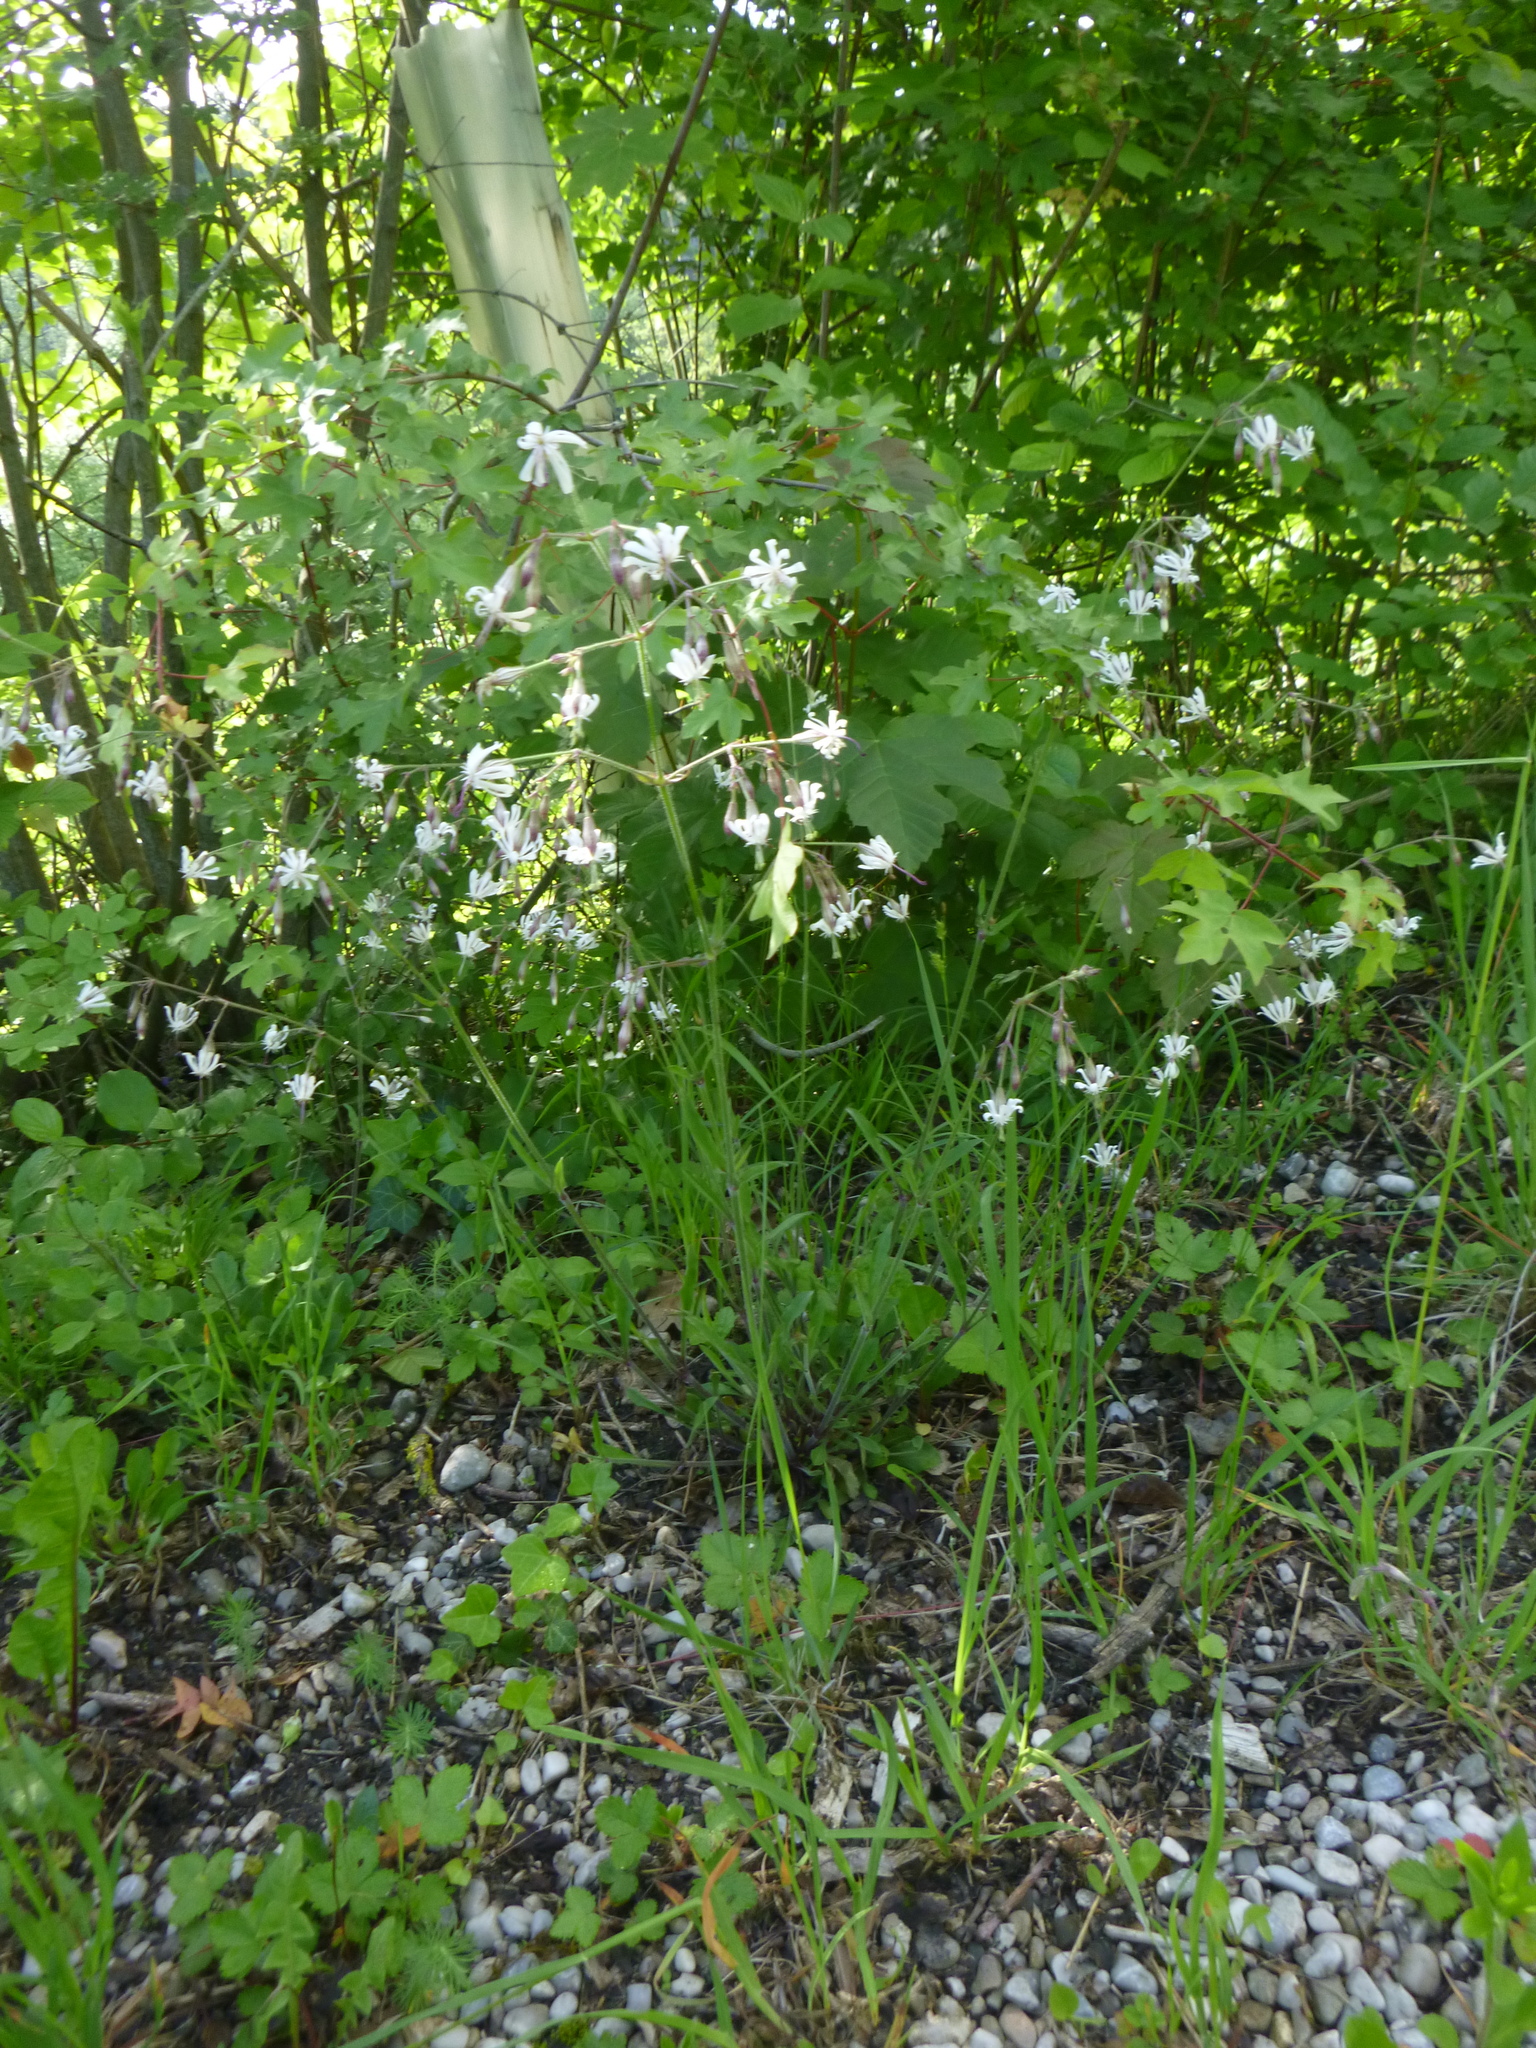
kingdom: Plantae
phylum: Tracheophyta
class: Magnoliopsida
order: Caryophyllales
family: Caryophyllaceae
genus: Silene
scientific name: Silene nutans
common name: Nottingham catchfly
